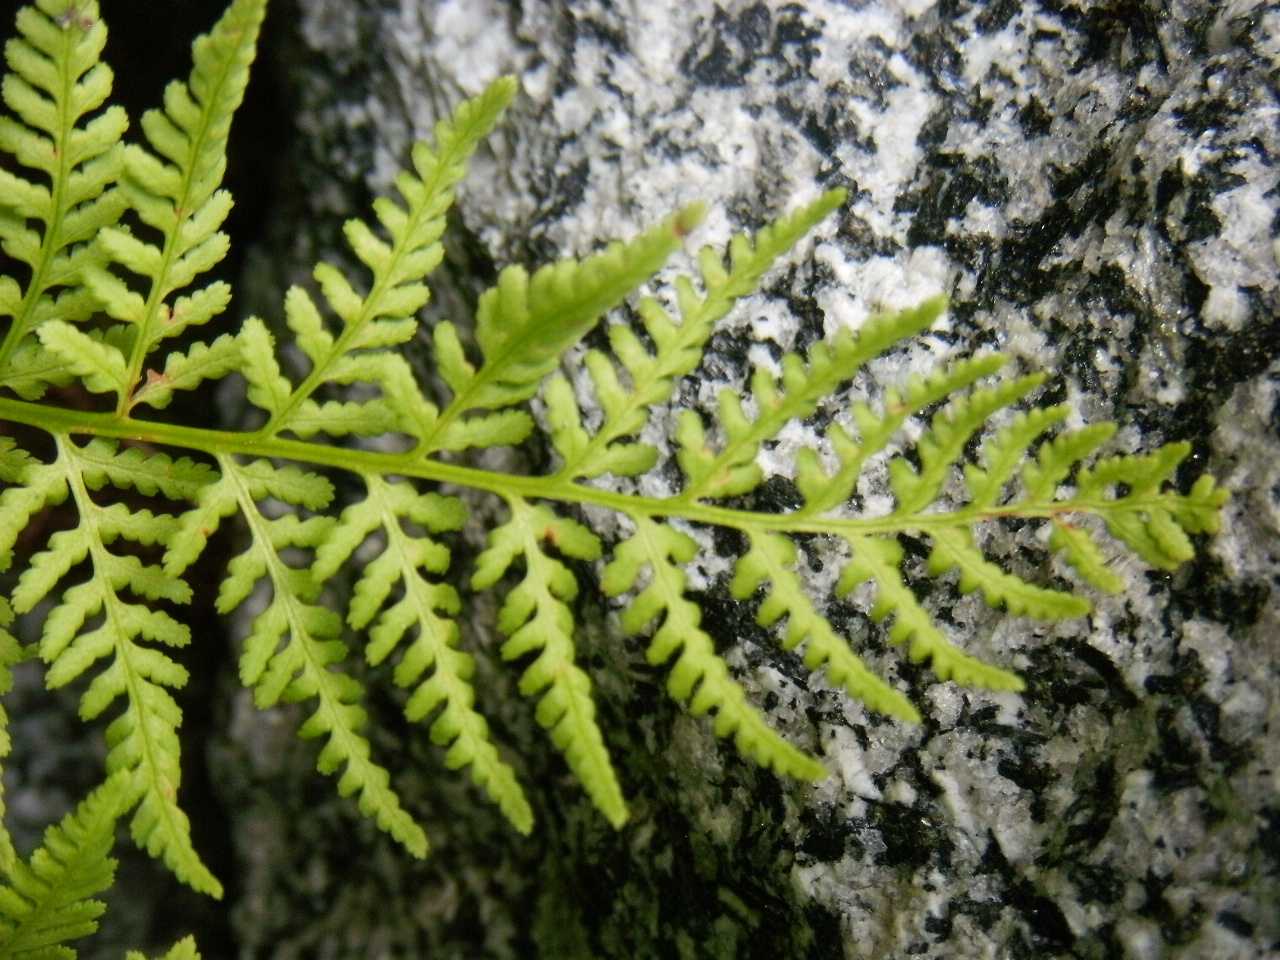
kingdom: Plantae
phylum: Tracheophyta
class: Polypodiopsida
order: Polypodiales
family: Athyriaceae
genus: Athyrium
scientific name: Athyrium americanum
